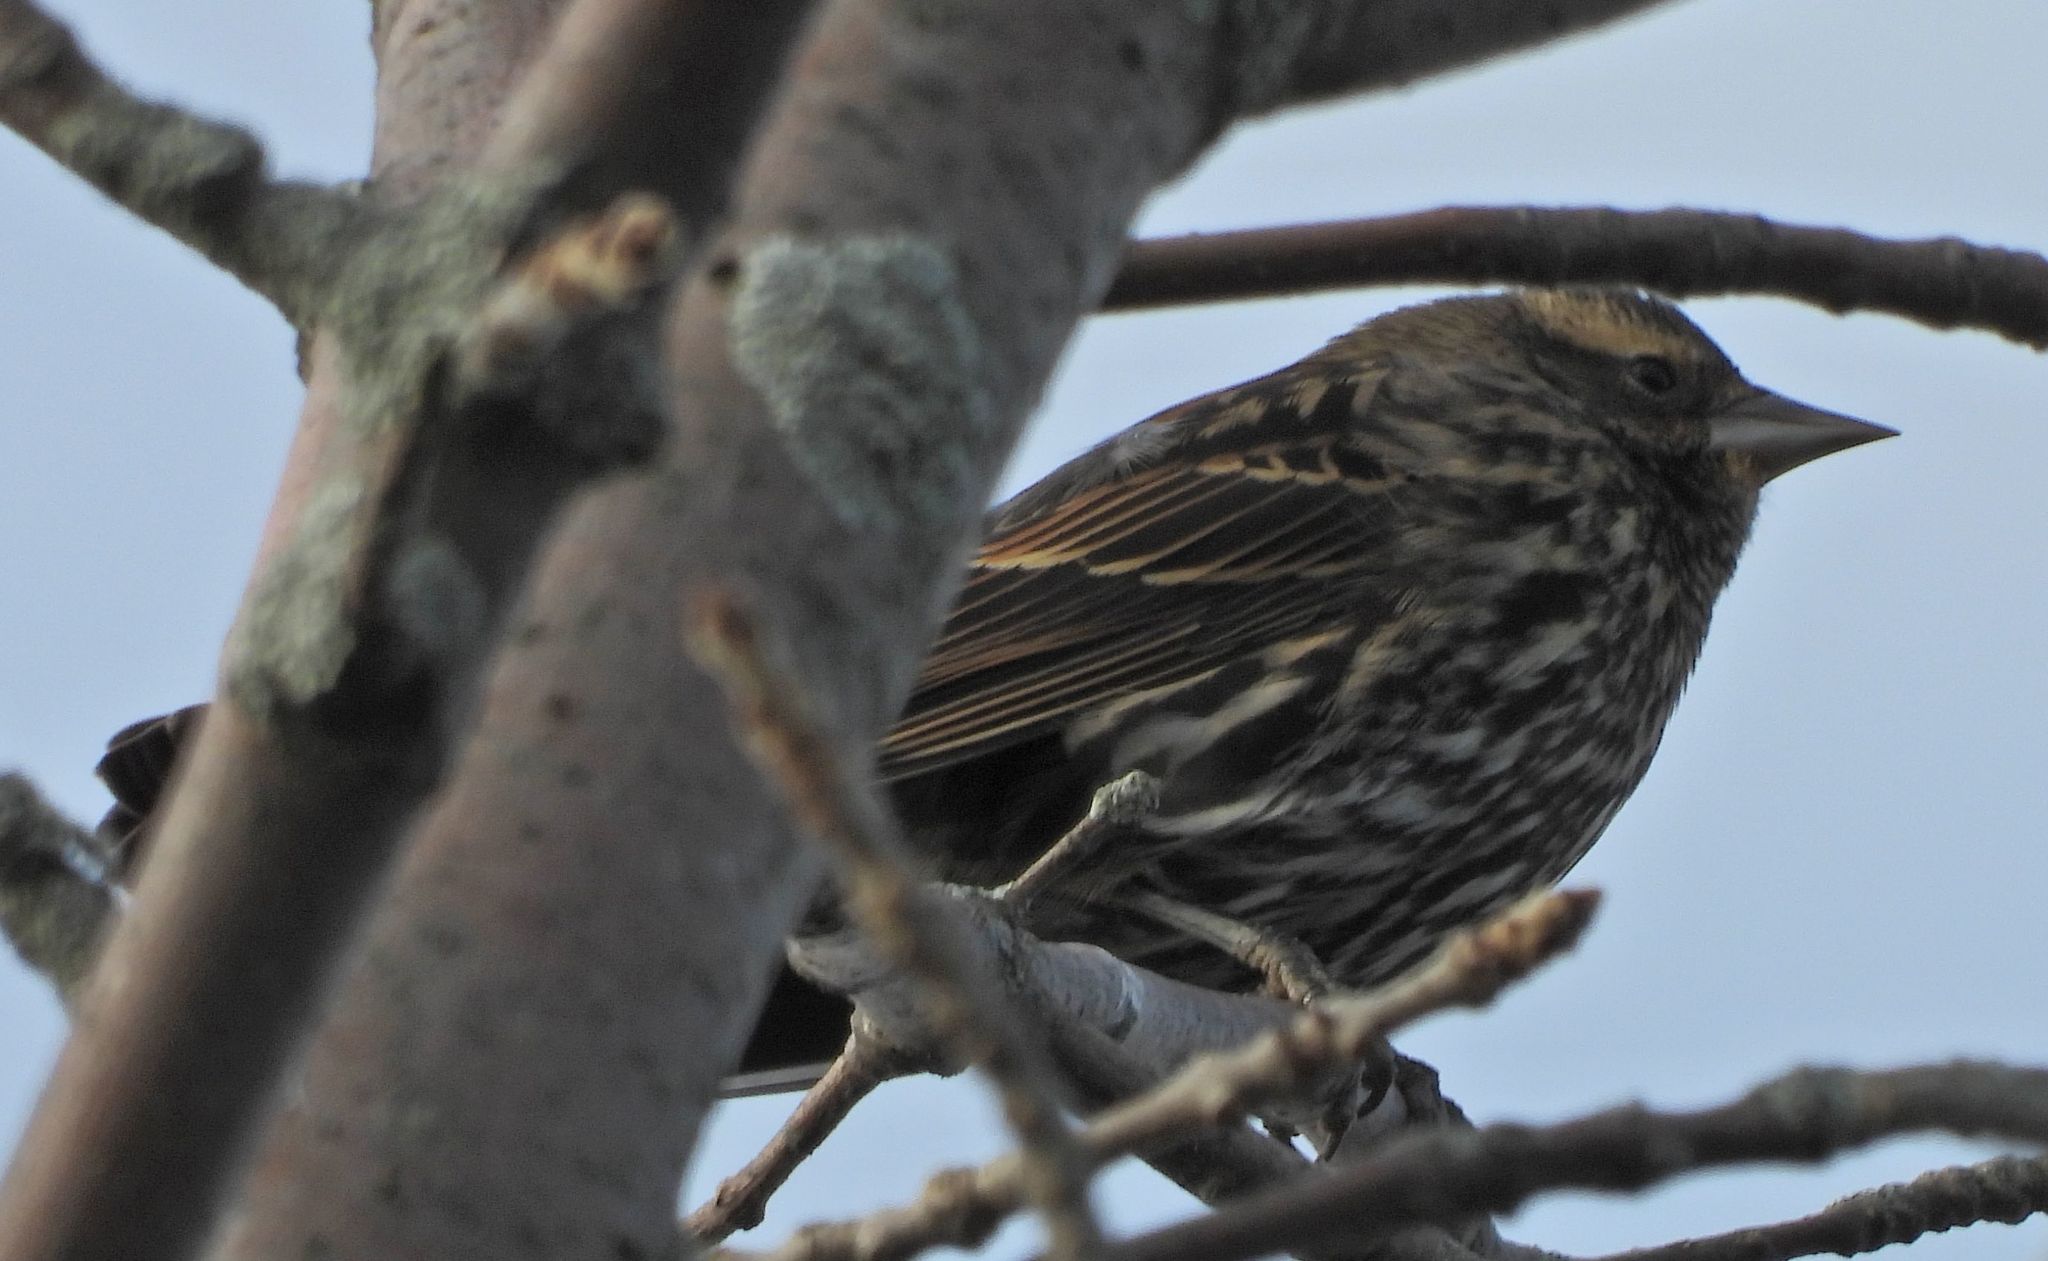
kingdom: Animalia
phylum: Chordata
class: Aves
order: Passeriformes
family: Icteridae
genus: Agelaius
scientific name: Agelaius phoeniceus
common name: Red-winged blackbird
